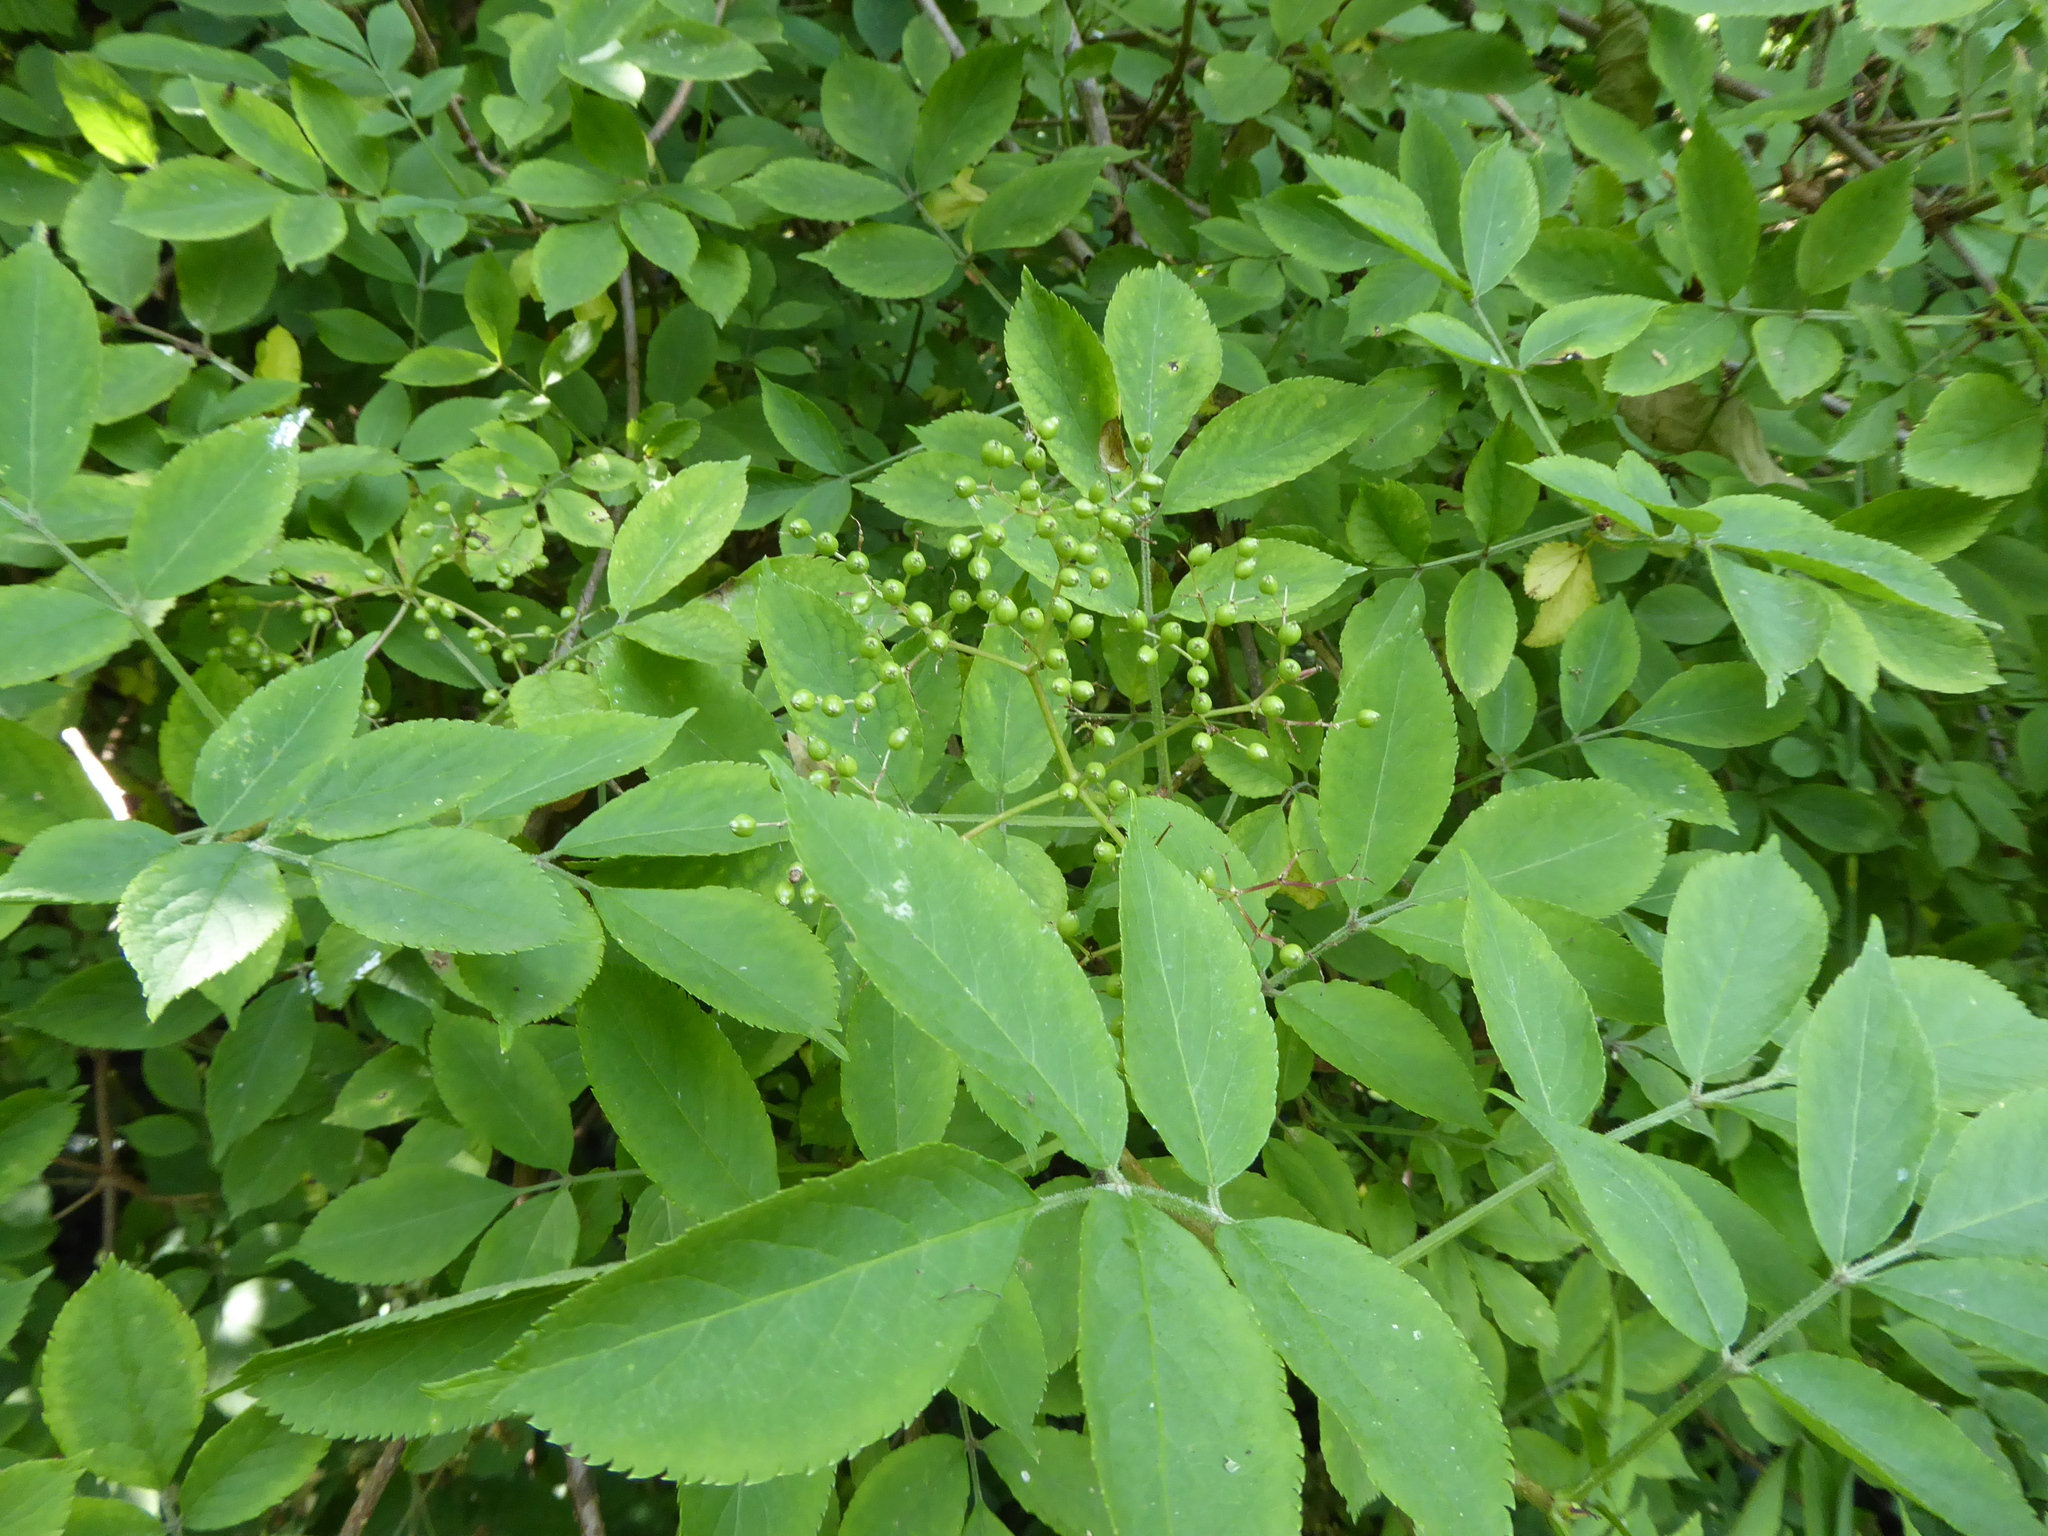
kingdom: Plantae
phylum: Tracheophyta
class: Magnoliopsida
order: Dipsacales
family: Viburnaceae
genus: Sambucus
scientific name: Sambucus nigra
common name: Elder
